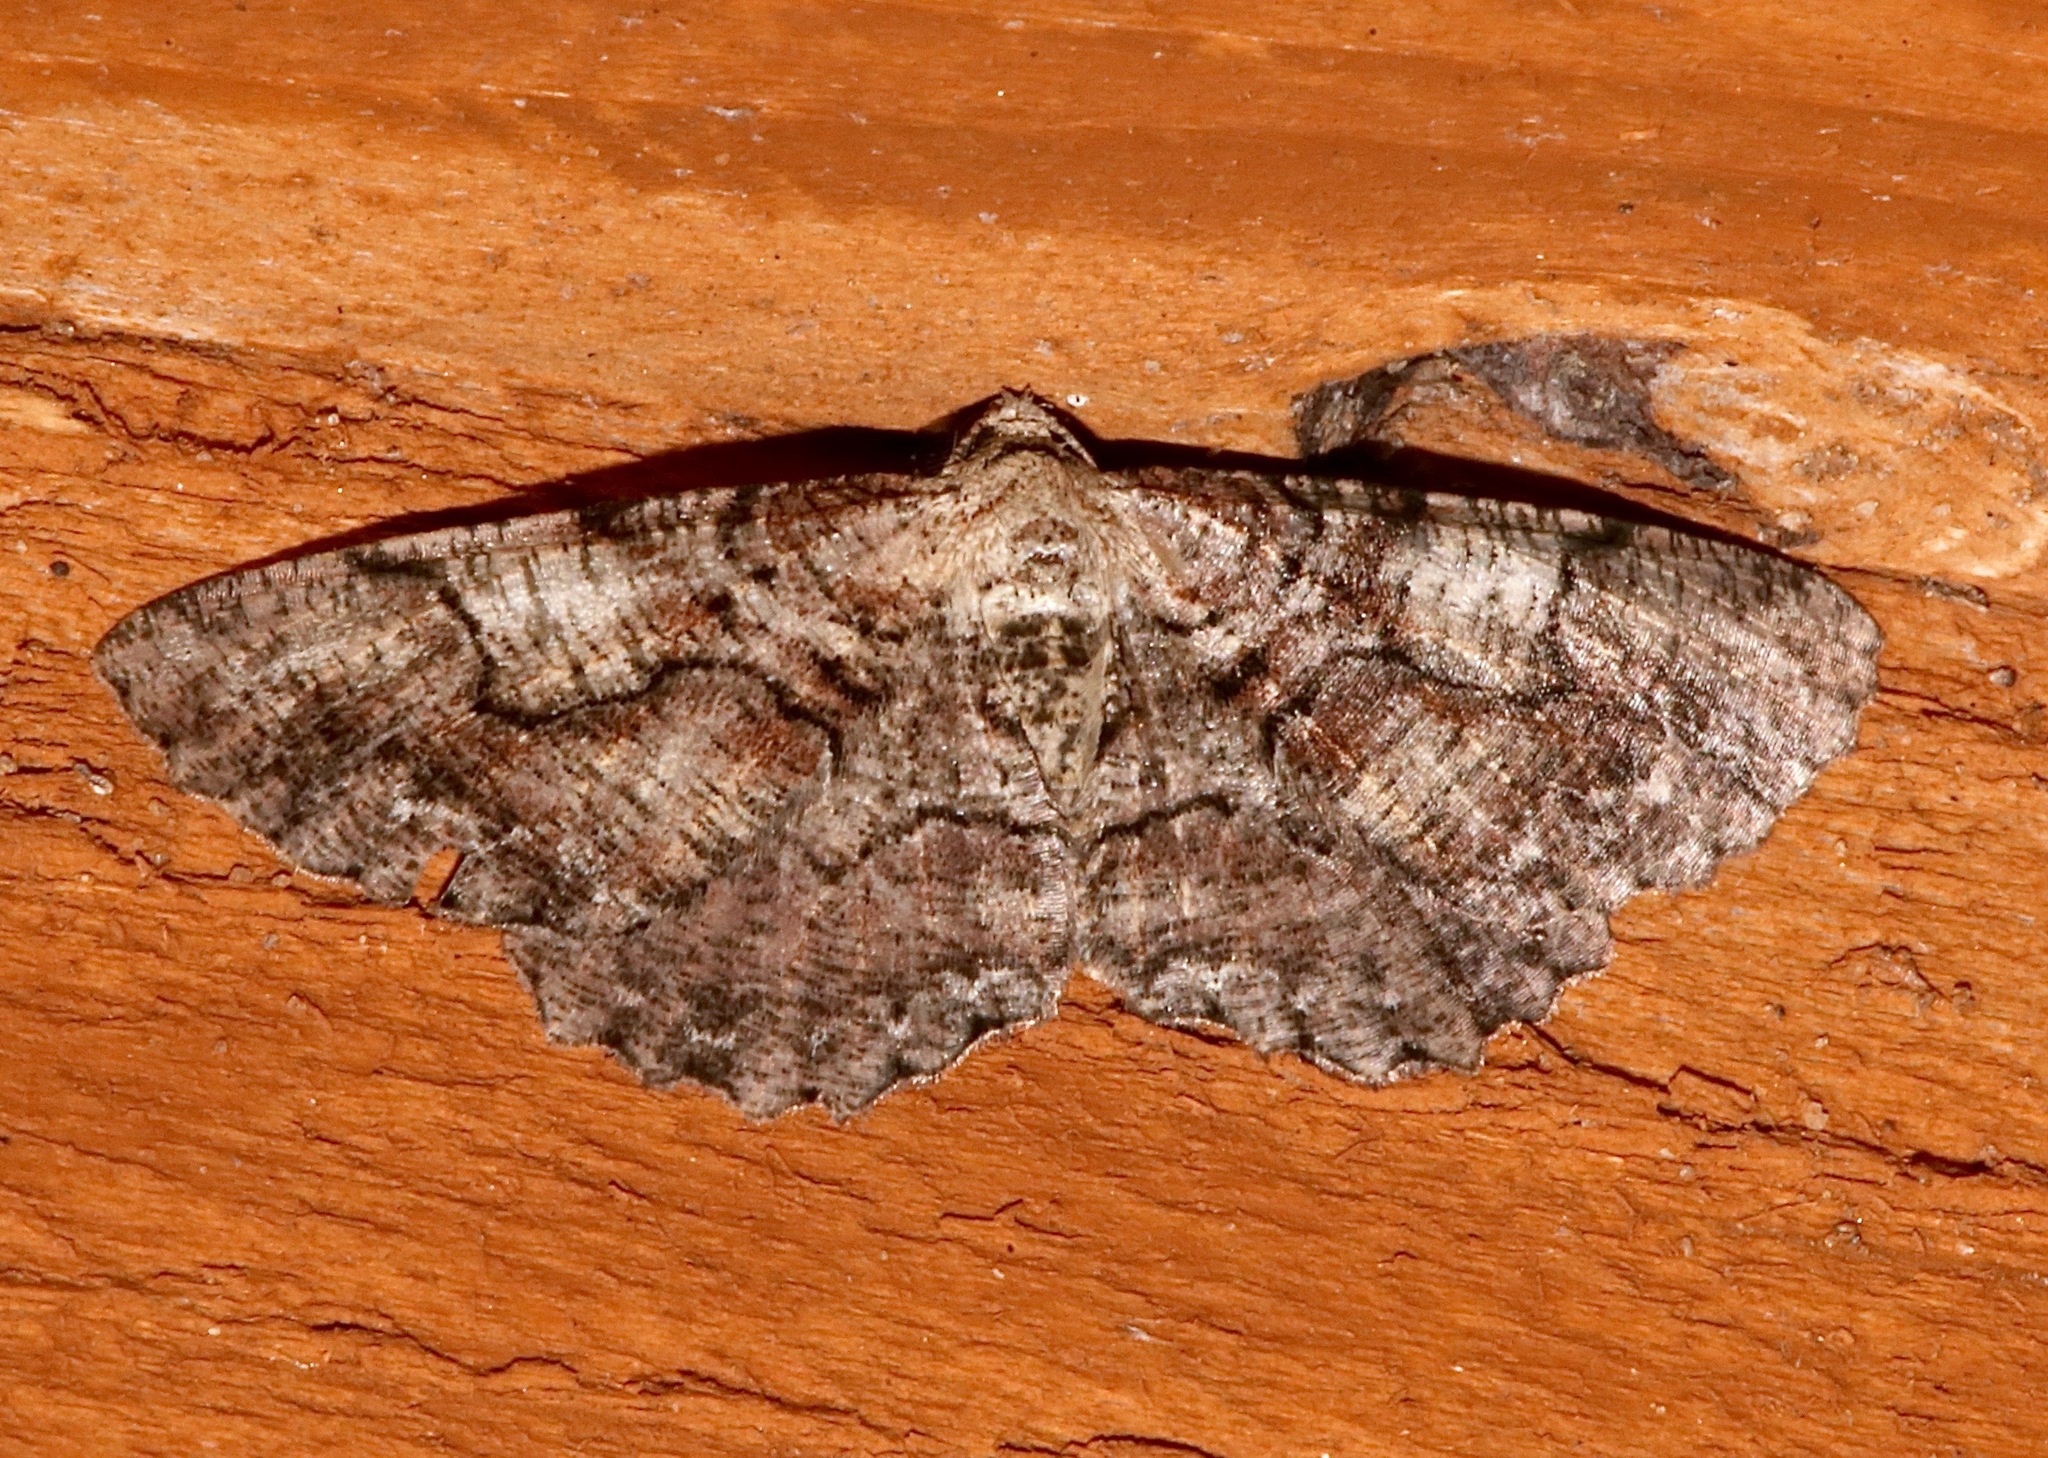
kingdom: Animalia
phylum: Arthropoda
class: Insecta
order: Lepidoptera
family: Geometridae
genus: Cymatophora
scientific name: Cymatophora approximaria
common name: Giant gray moth
